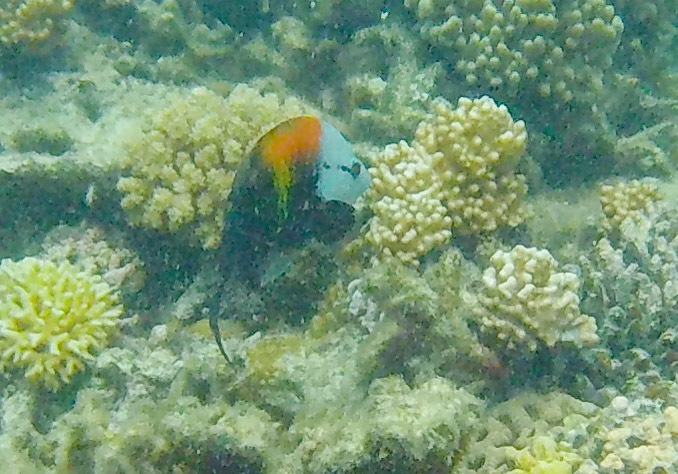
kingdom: Animalia
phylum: Chordata
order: Perciformes
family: Labridae
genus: Epibulus
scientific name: Epibulus insidiator
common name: Slingjaw wrasse
